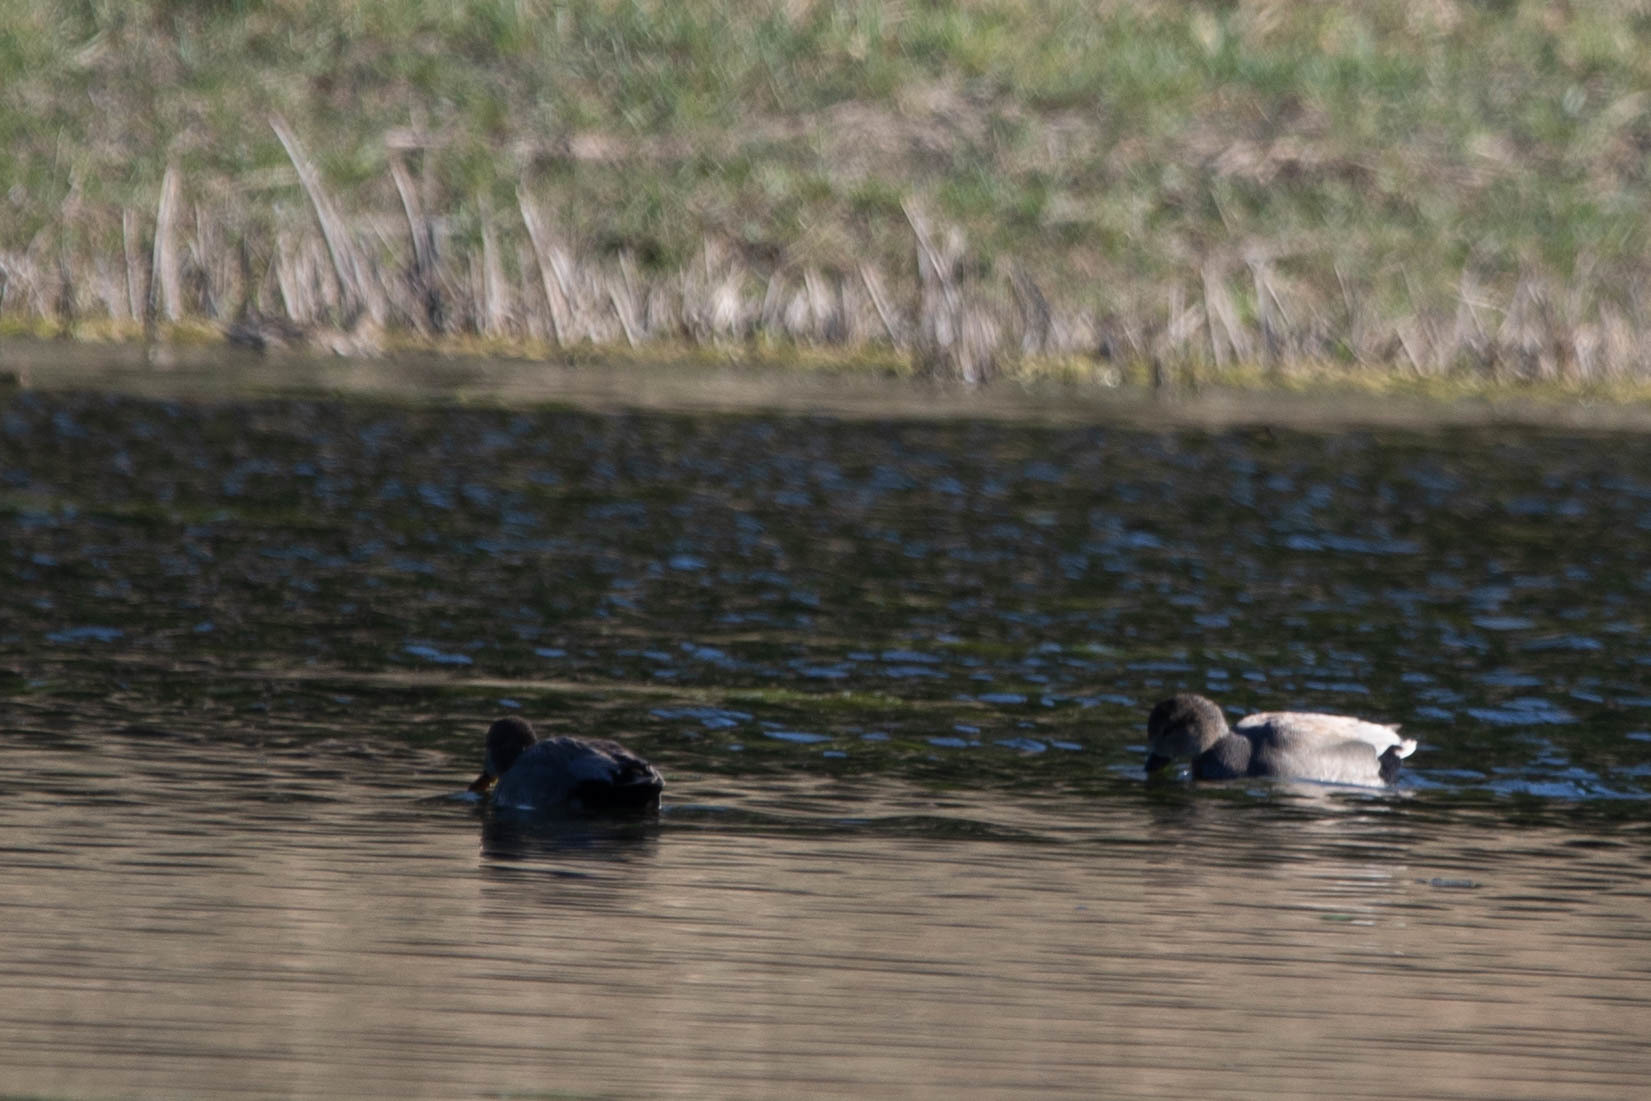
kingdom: Animalia
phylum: Chordata
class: Aves
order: Anseriformes
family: Anatidae
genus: Mareca
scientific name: Mareca strepera
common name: Gadwall
